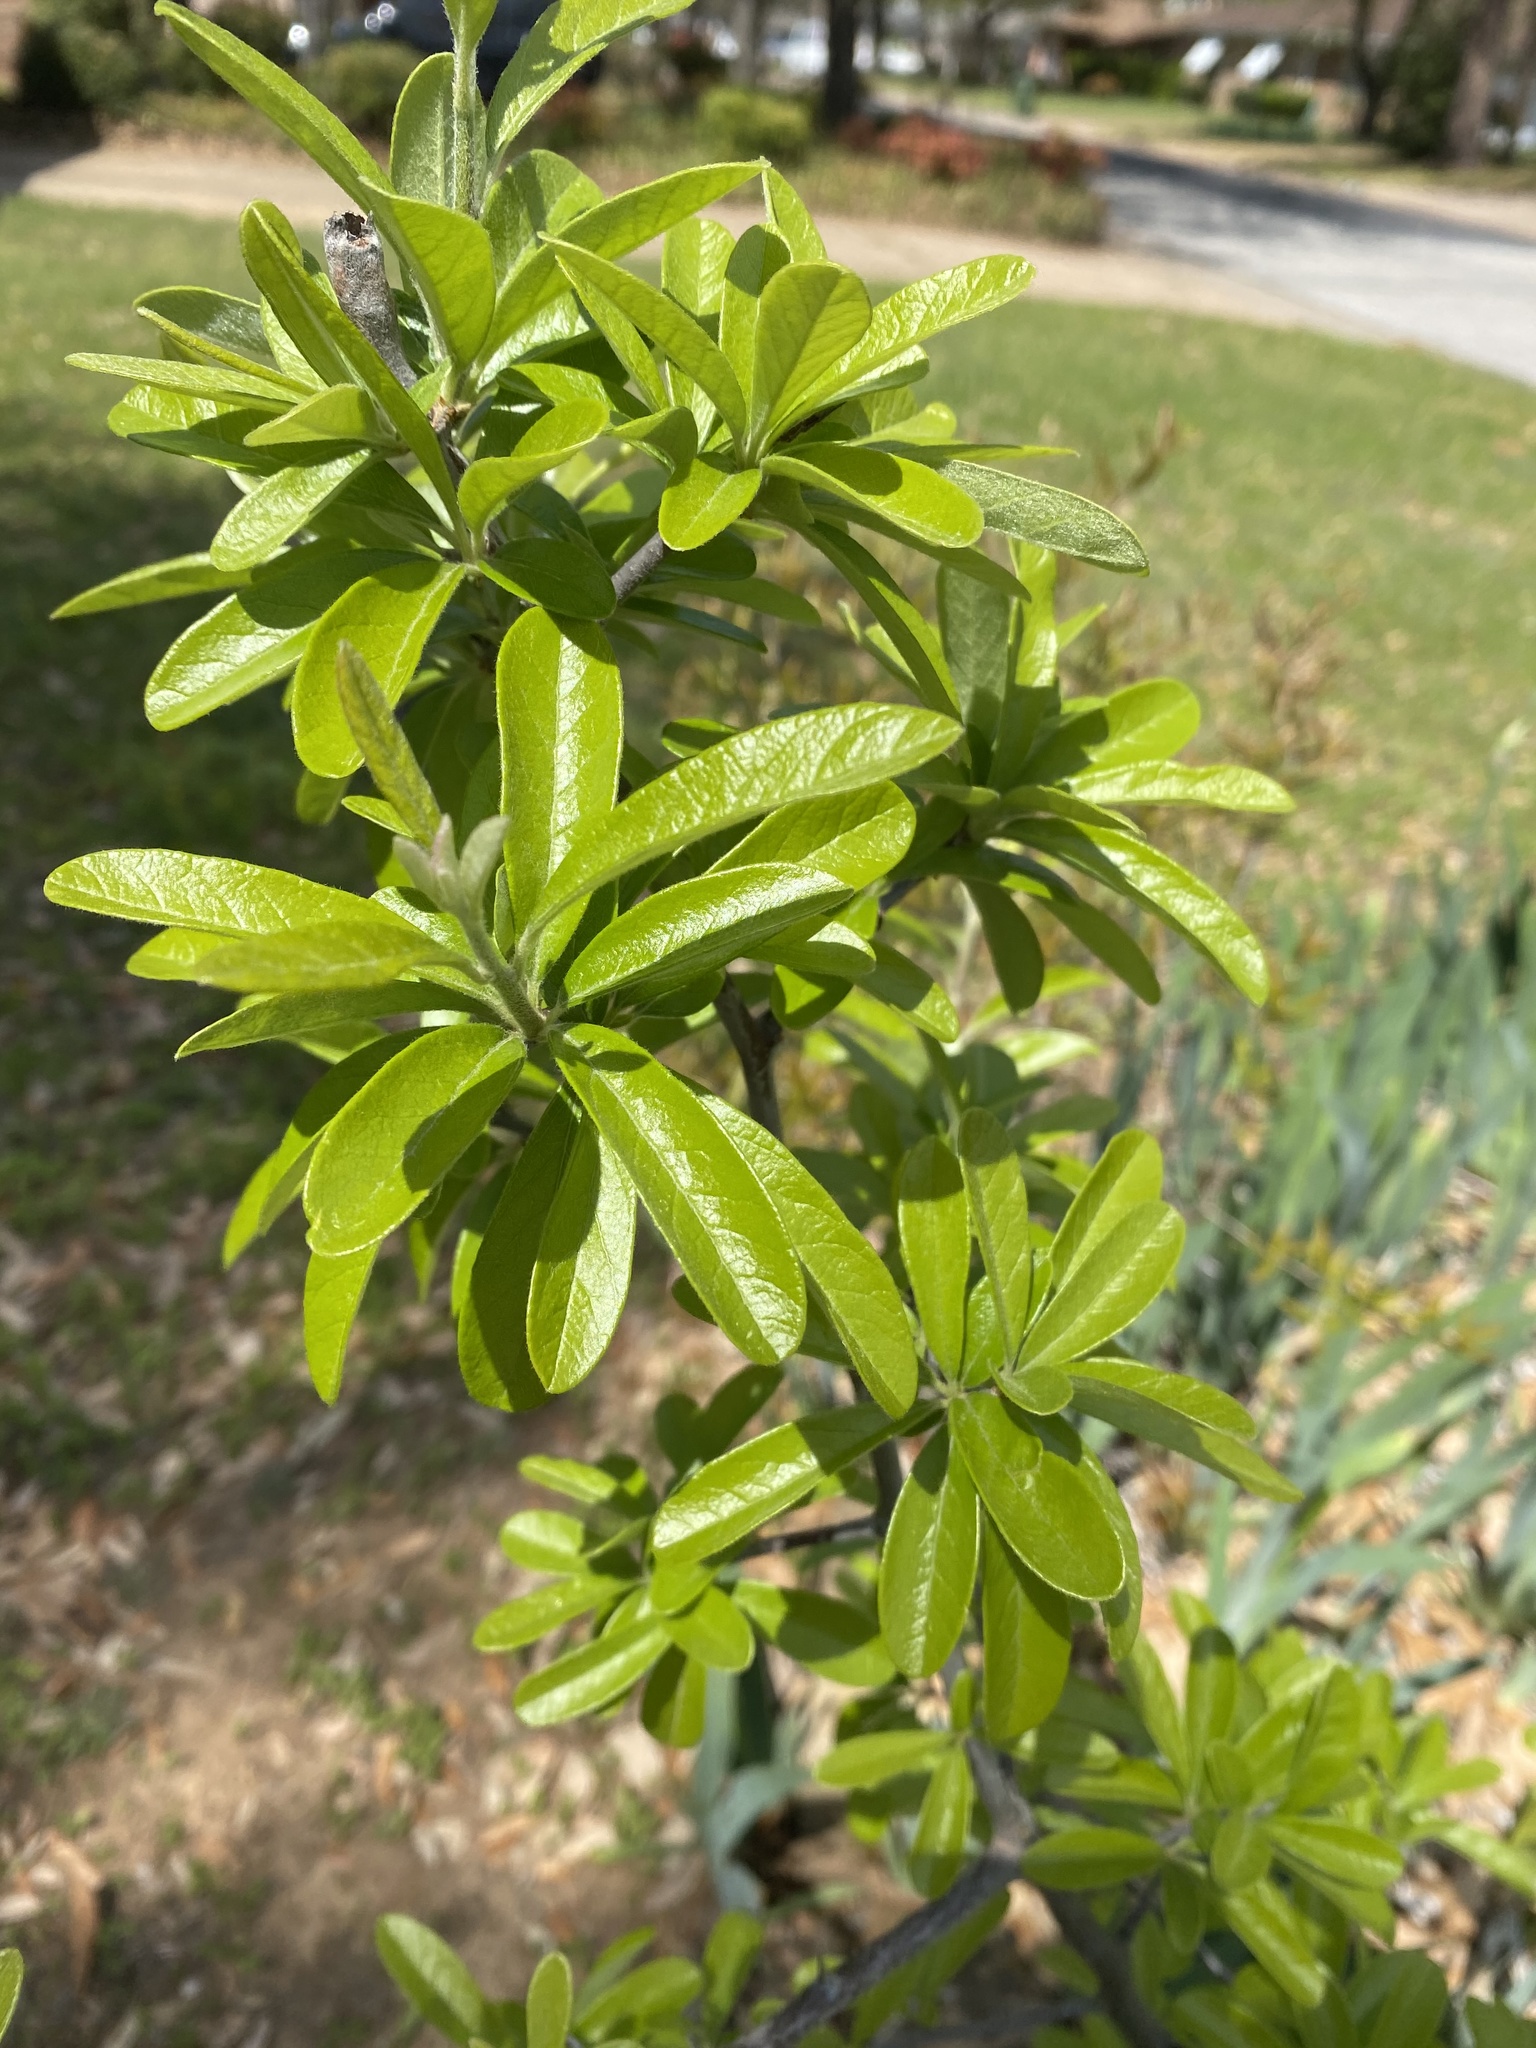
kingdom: Plantae
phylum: Tracheophyta
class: Magnoliopsida
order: Ericales
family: Sapotaceae
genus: Sideroxylon
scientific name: Sideroxylon lanuginosum
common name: Chittamwood
